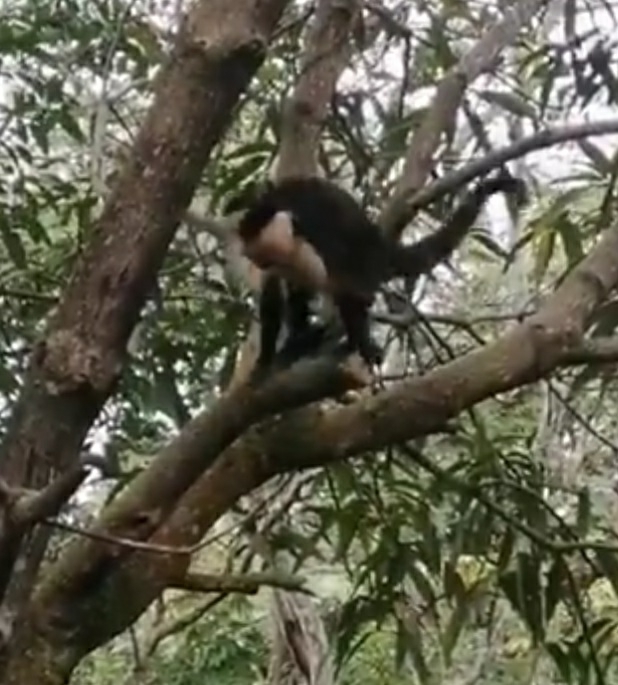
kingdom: Animalia
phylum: Chordata
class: Mammalia
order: Primates
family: Cebidae
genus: Cebus
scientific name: Cebus imitator
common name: Panamanian white-faced capuchin
